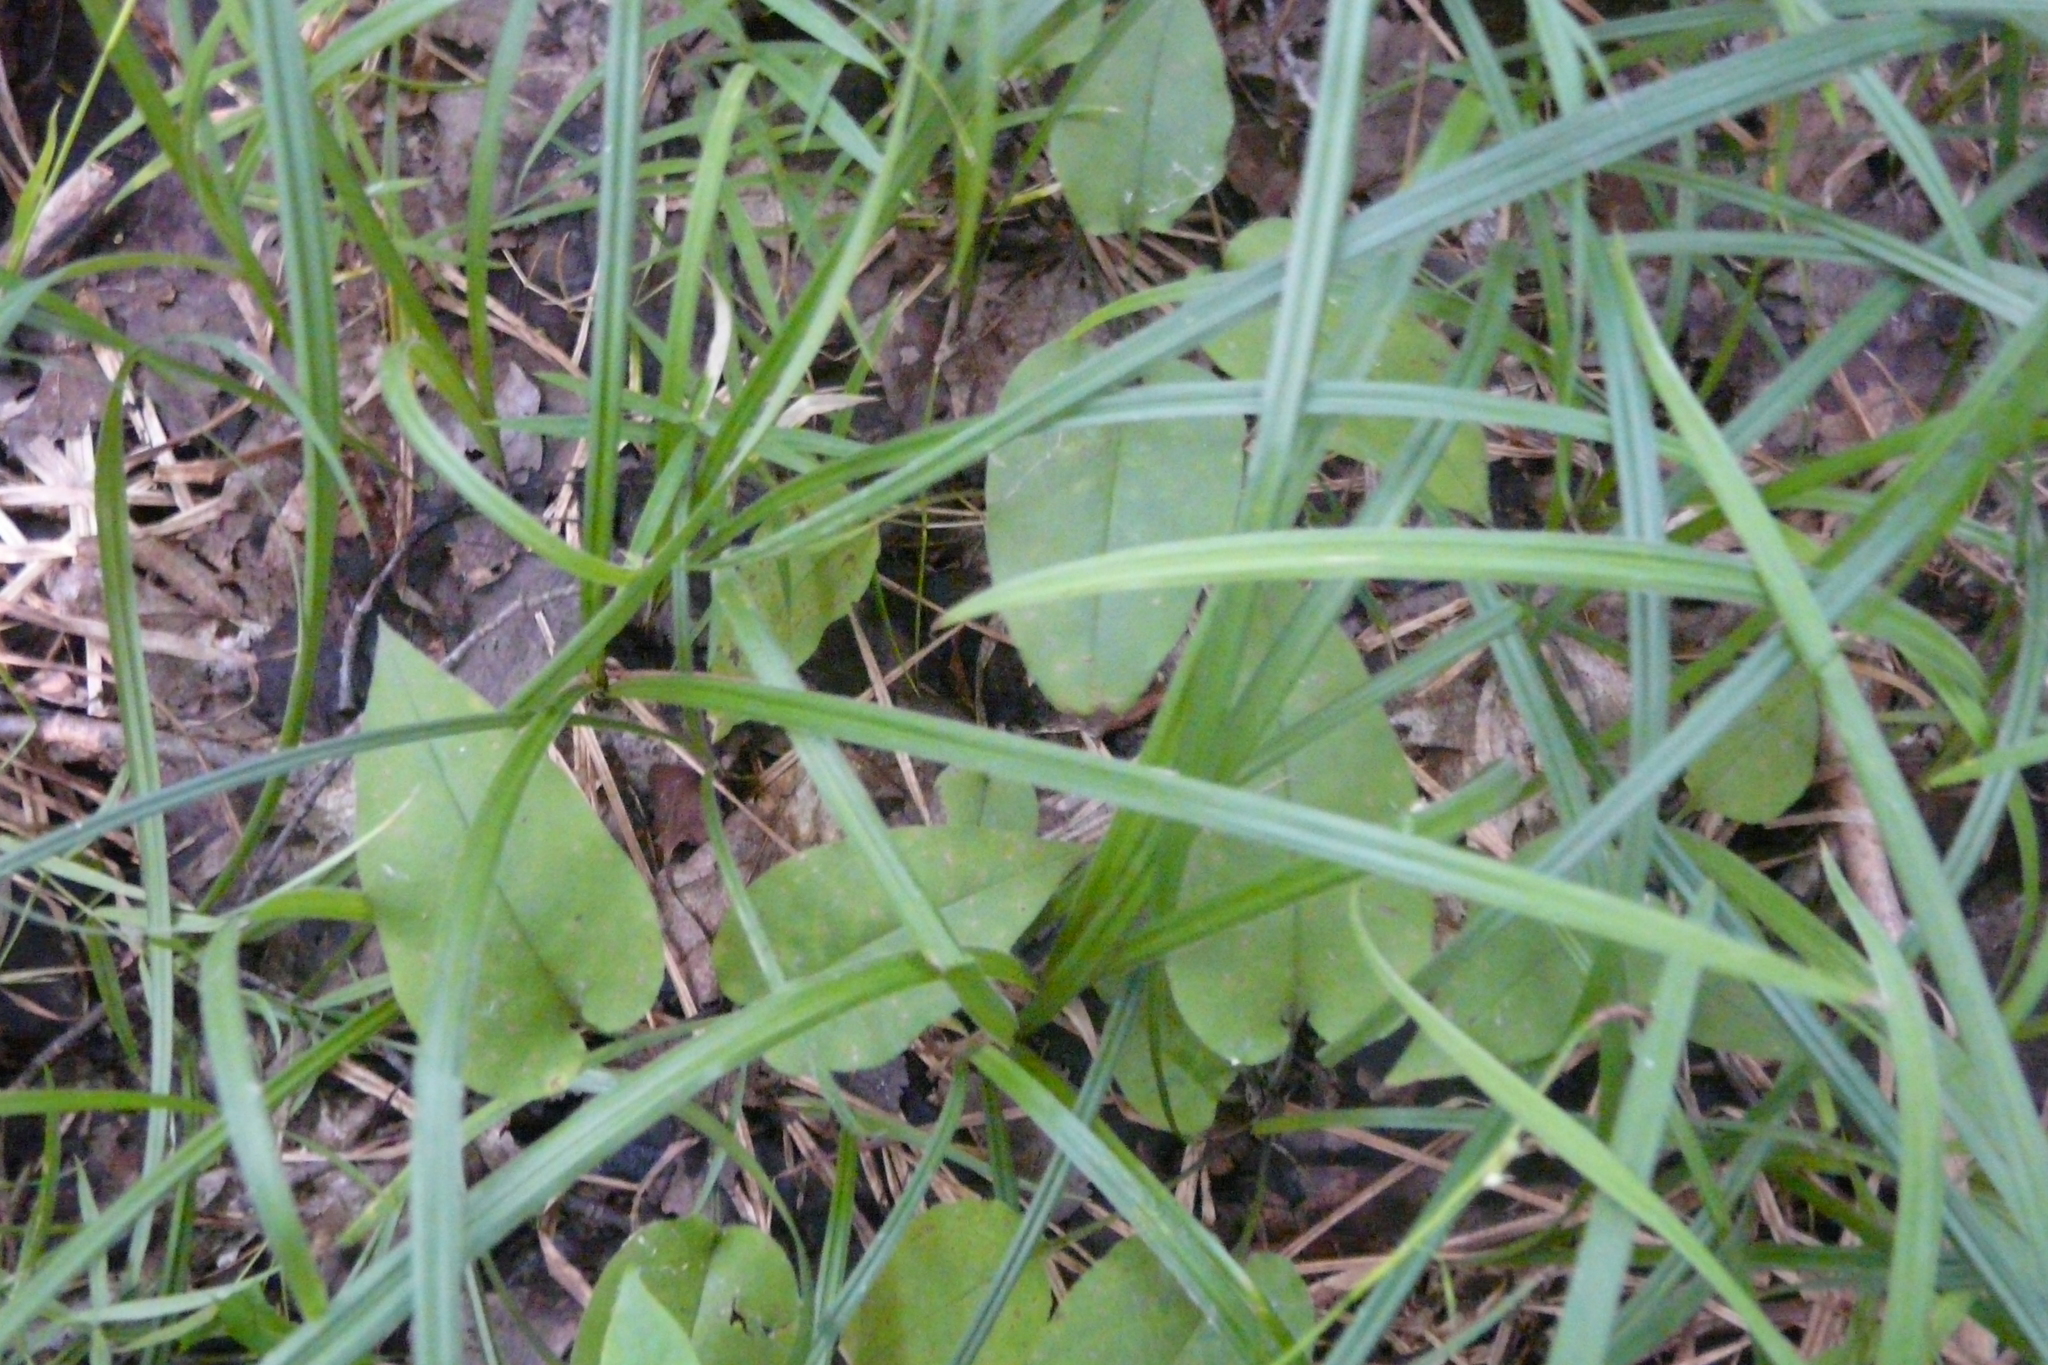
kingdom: Plantae
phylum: Tracheophyta
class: Magnoliopsida
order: Boraginales
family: Boraginaceae
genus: Pulmonaria
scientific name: Pulmonaria obscura
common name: Suffolk lungwort
